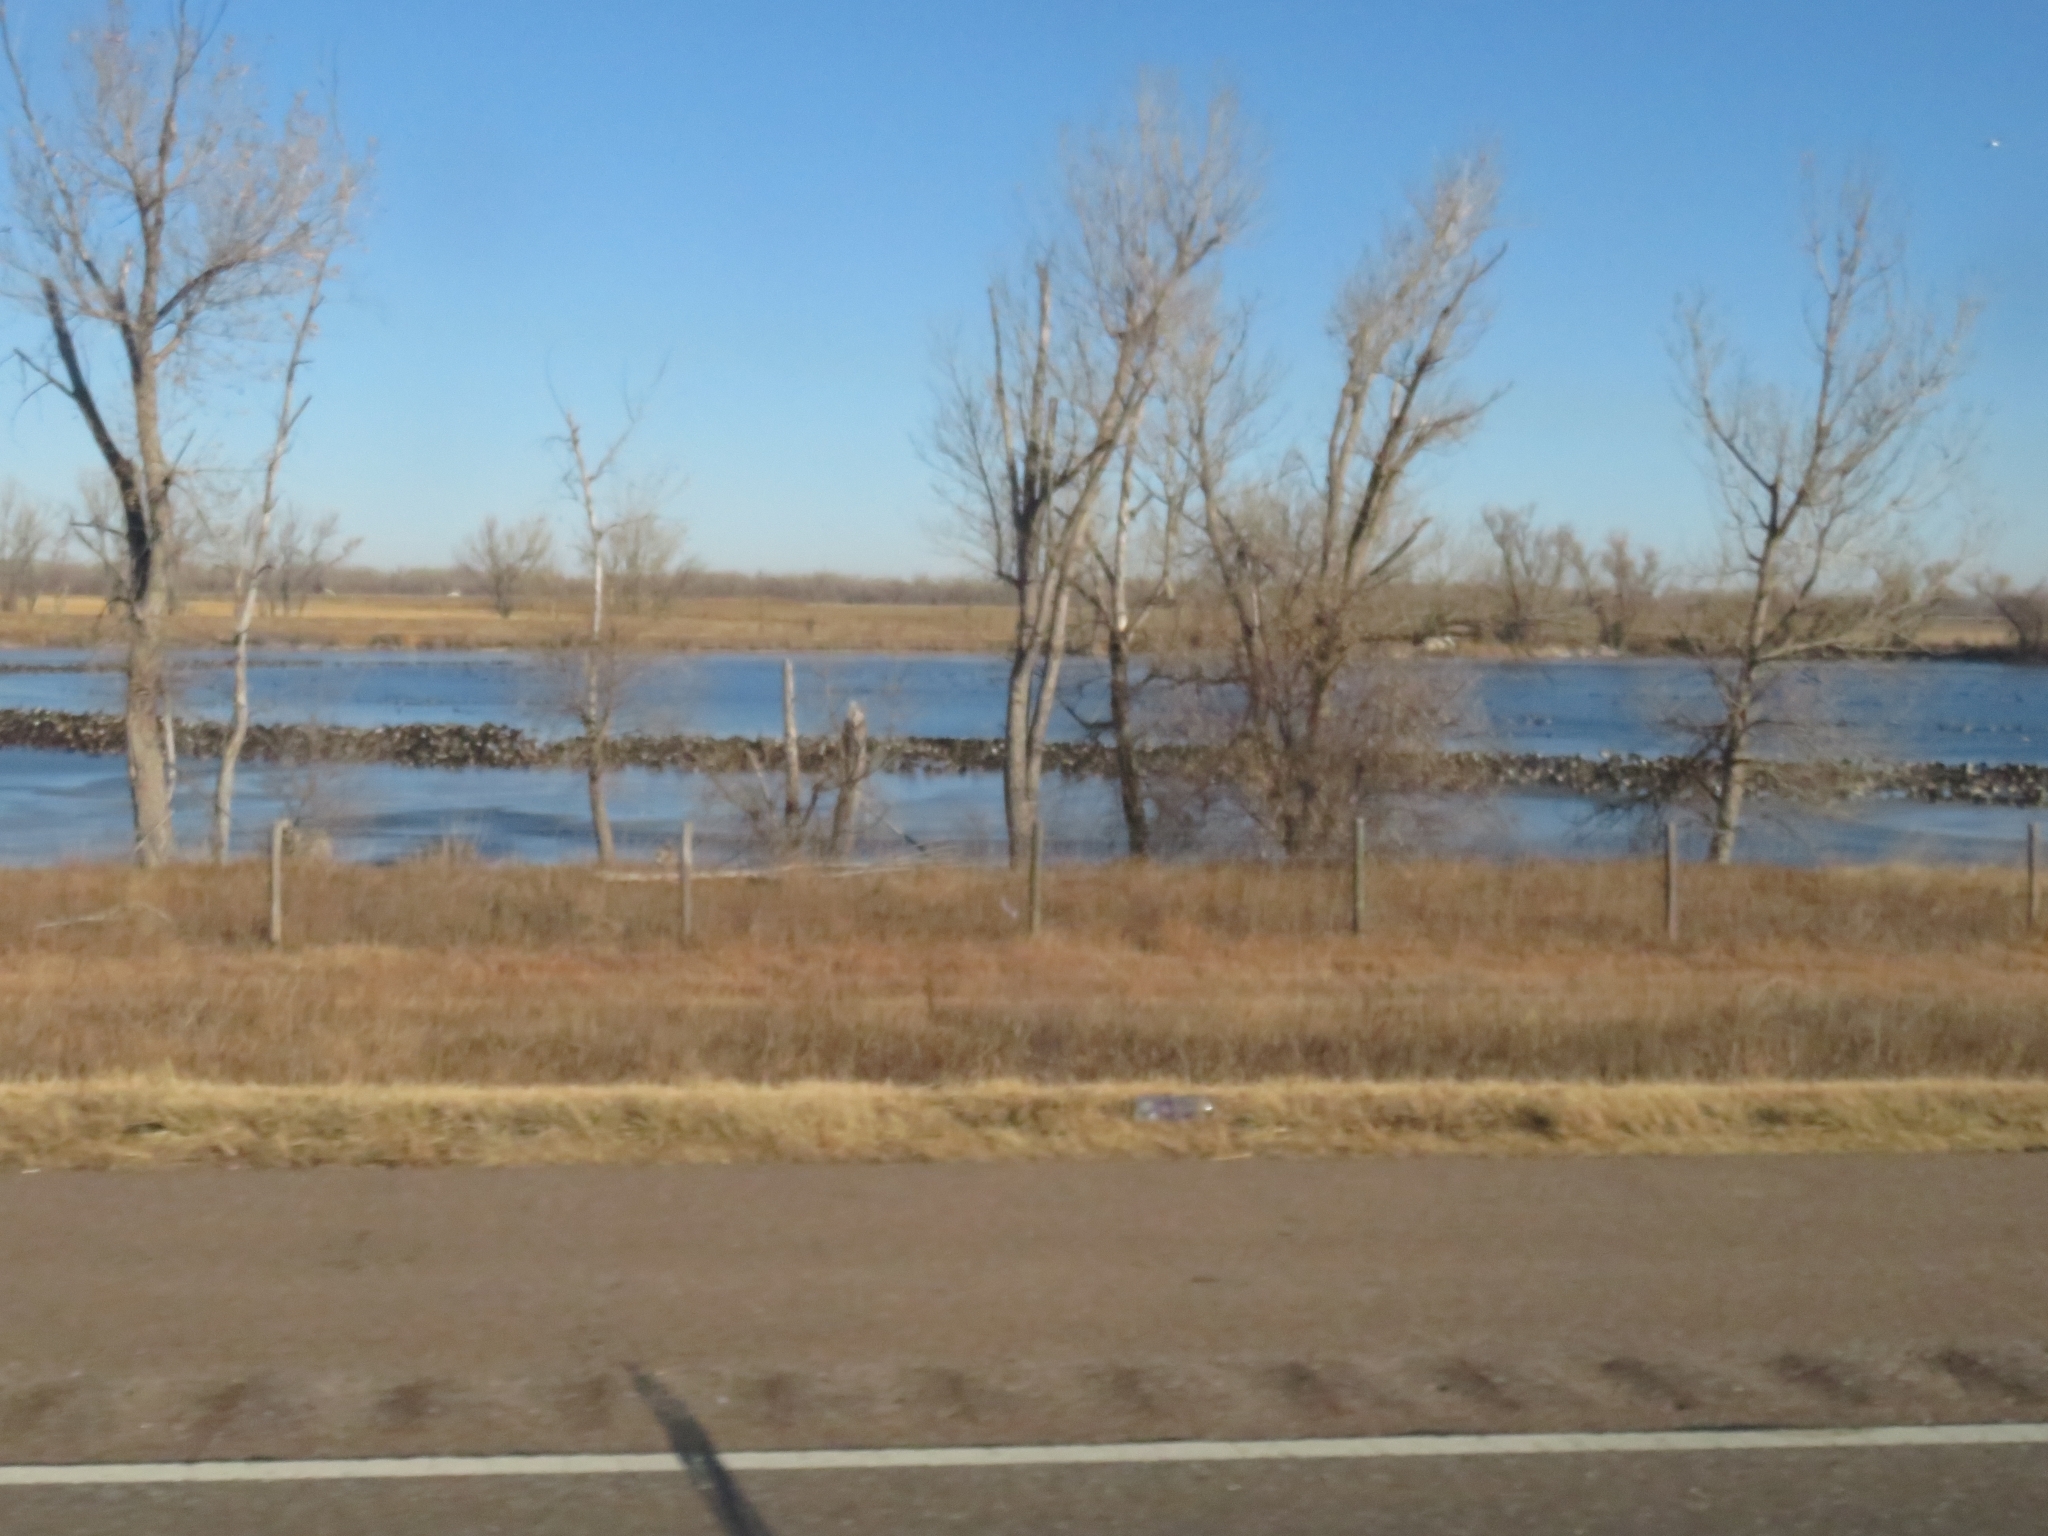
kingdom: Animalia
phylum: Chordata
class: Aves
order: Anseriformes
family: Anatidae
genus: Branta
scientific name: Branta canadensis
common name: Canada goose
